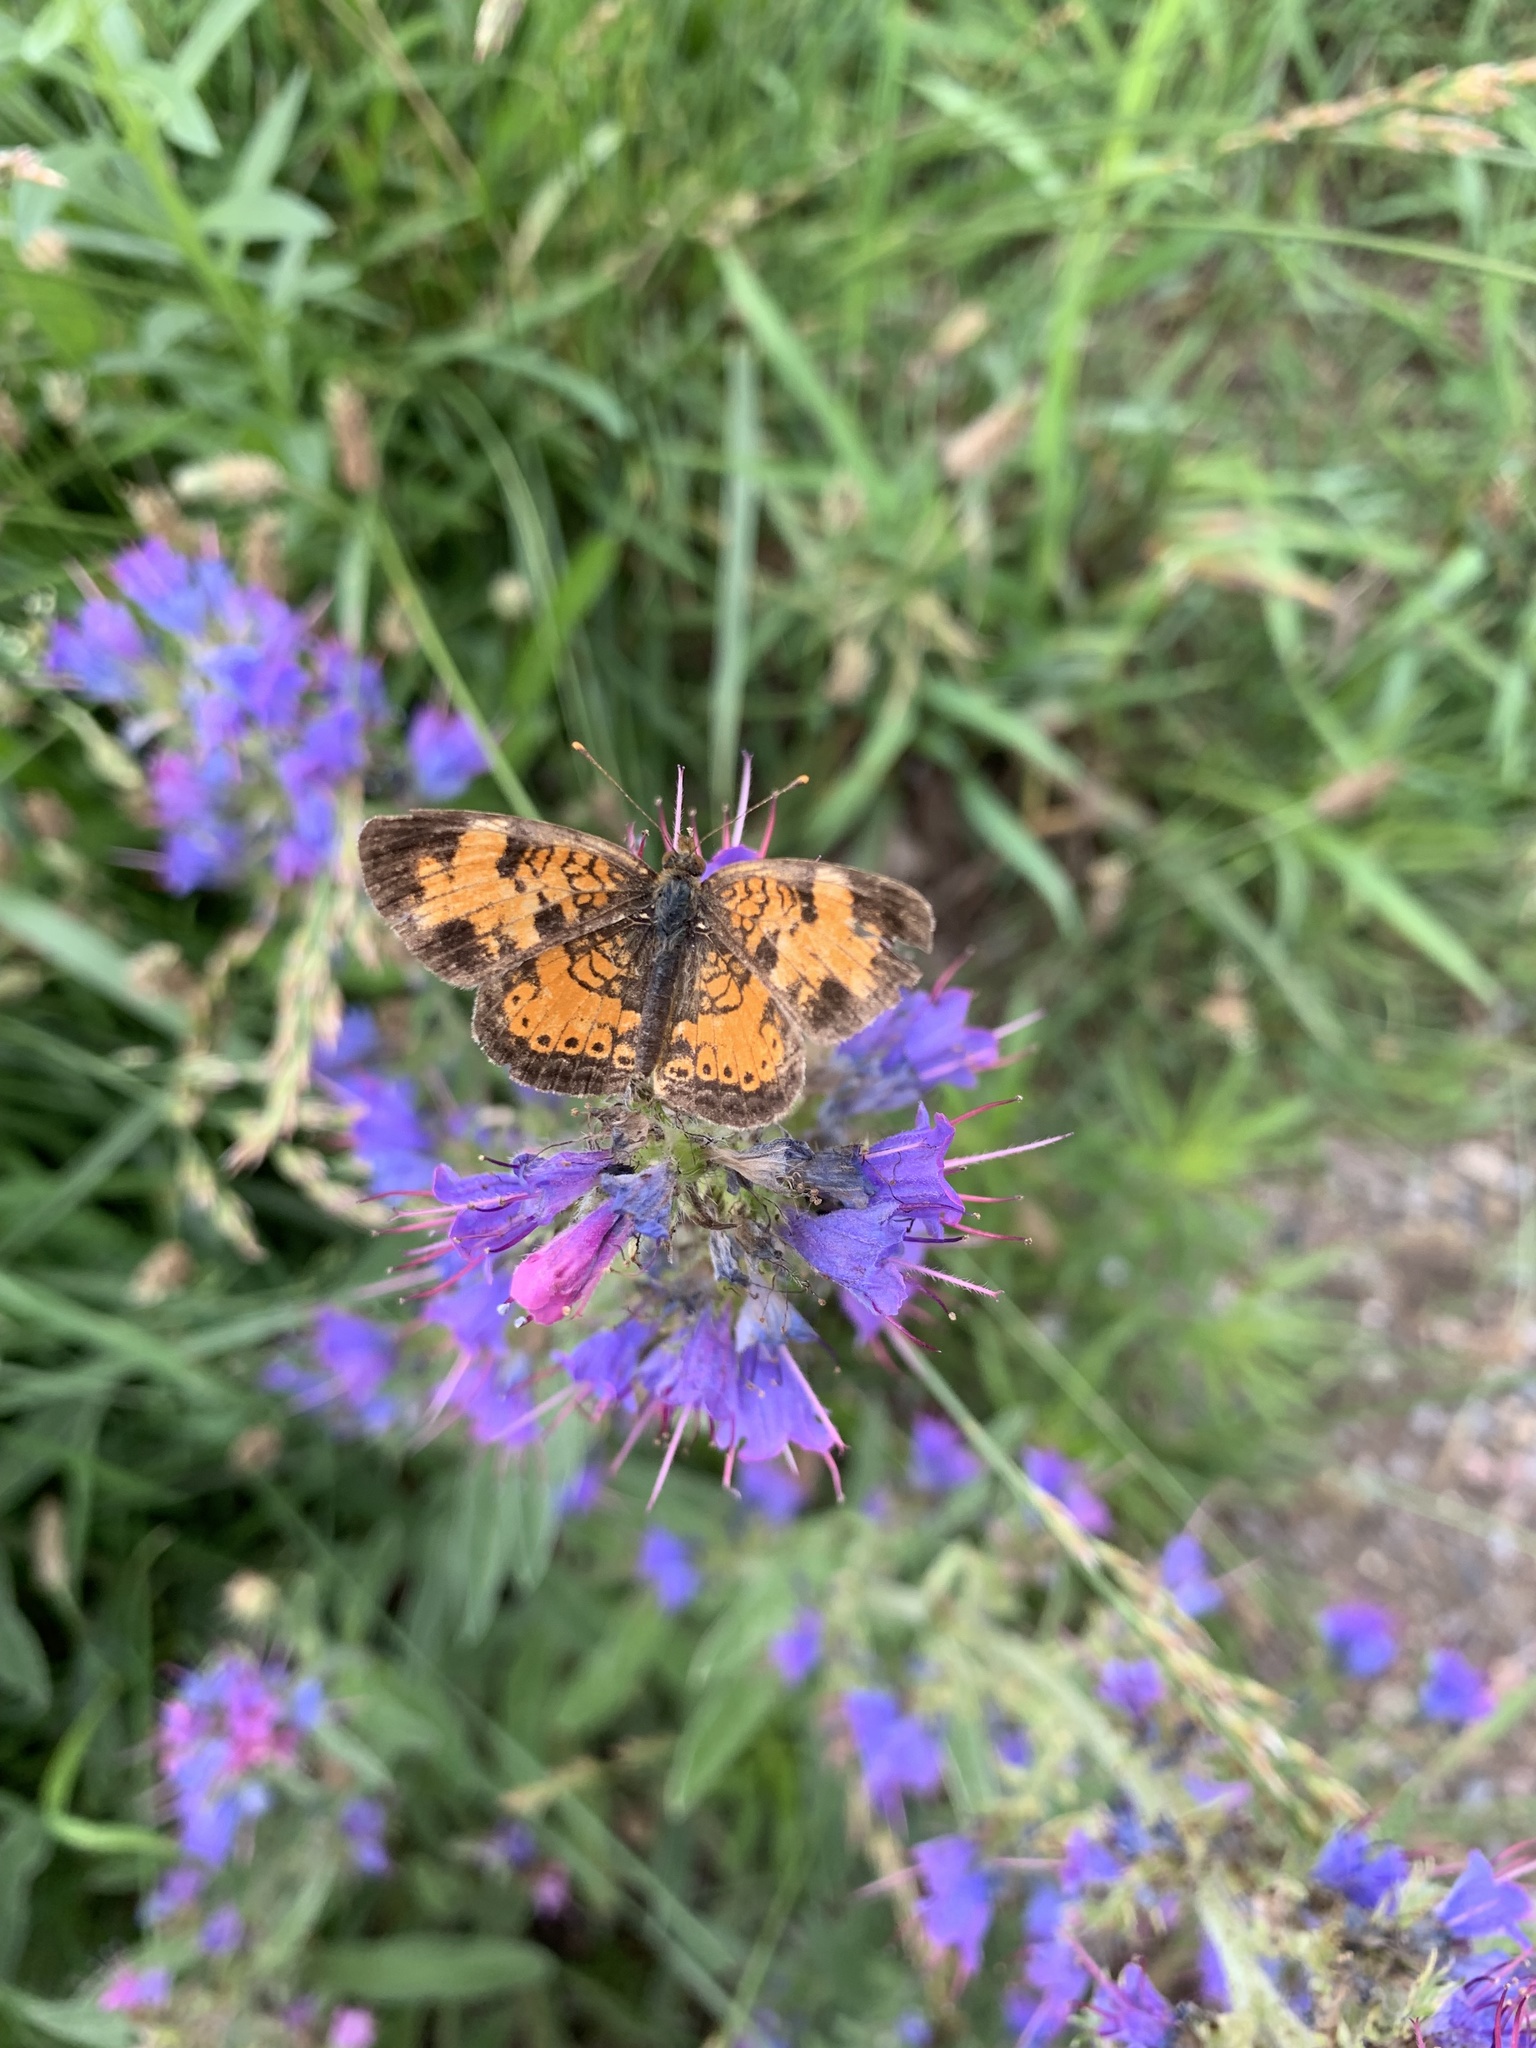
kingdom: Animalia
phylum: Arthropoda
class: Insecta
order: Lepidoptera
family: Nymphalidae
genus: Phyciodes
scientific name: Phyciodes tharos
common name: Pearl crescent
